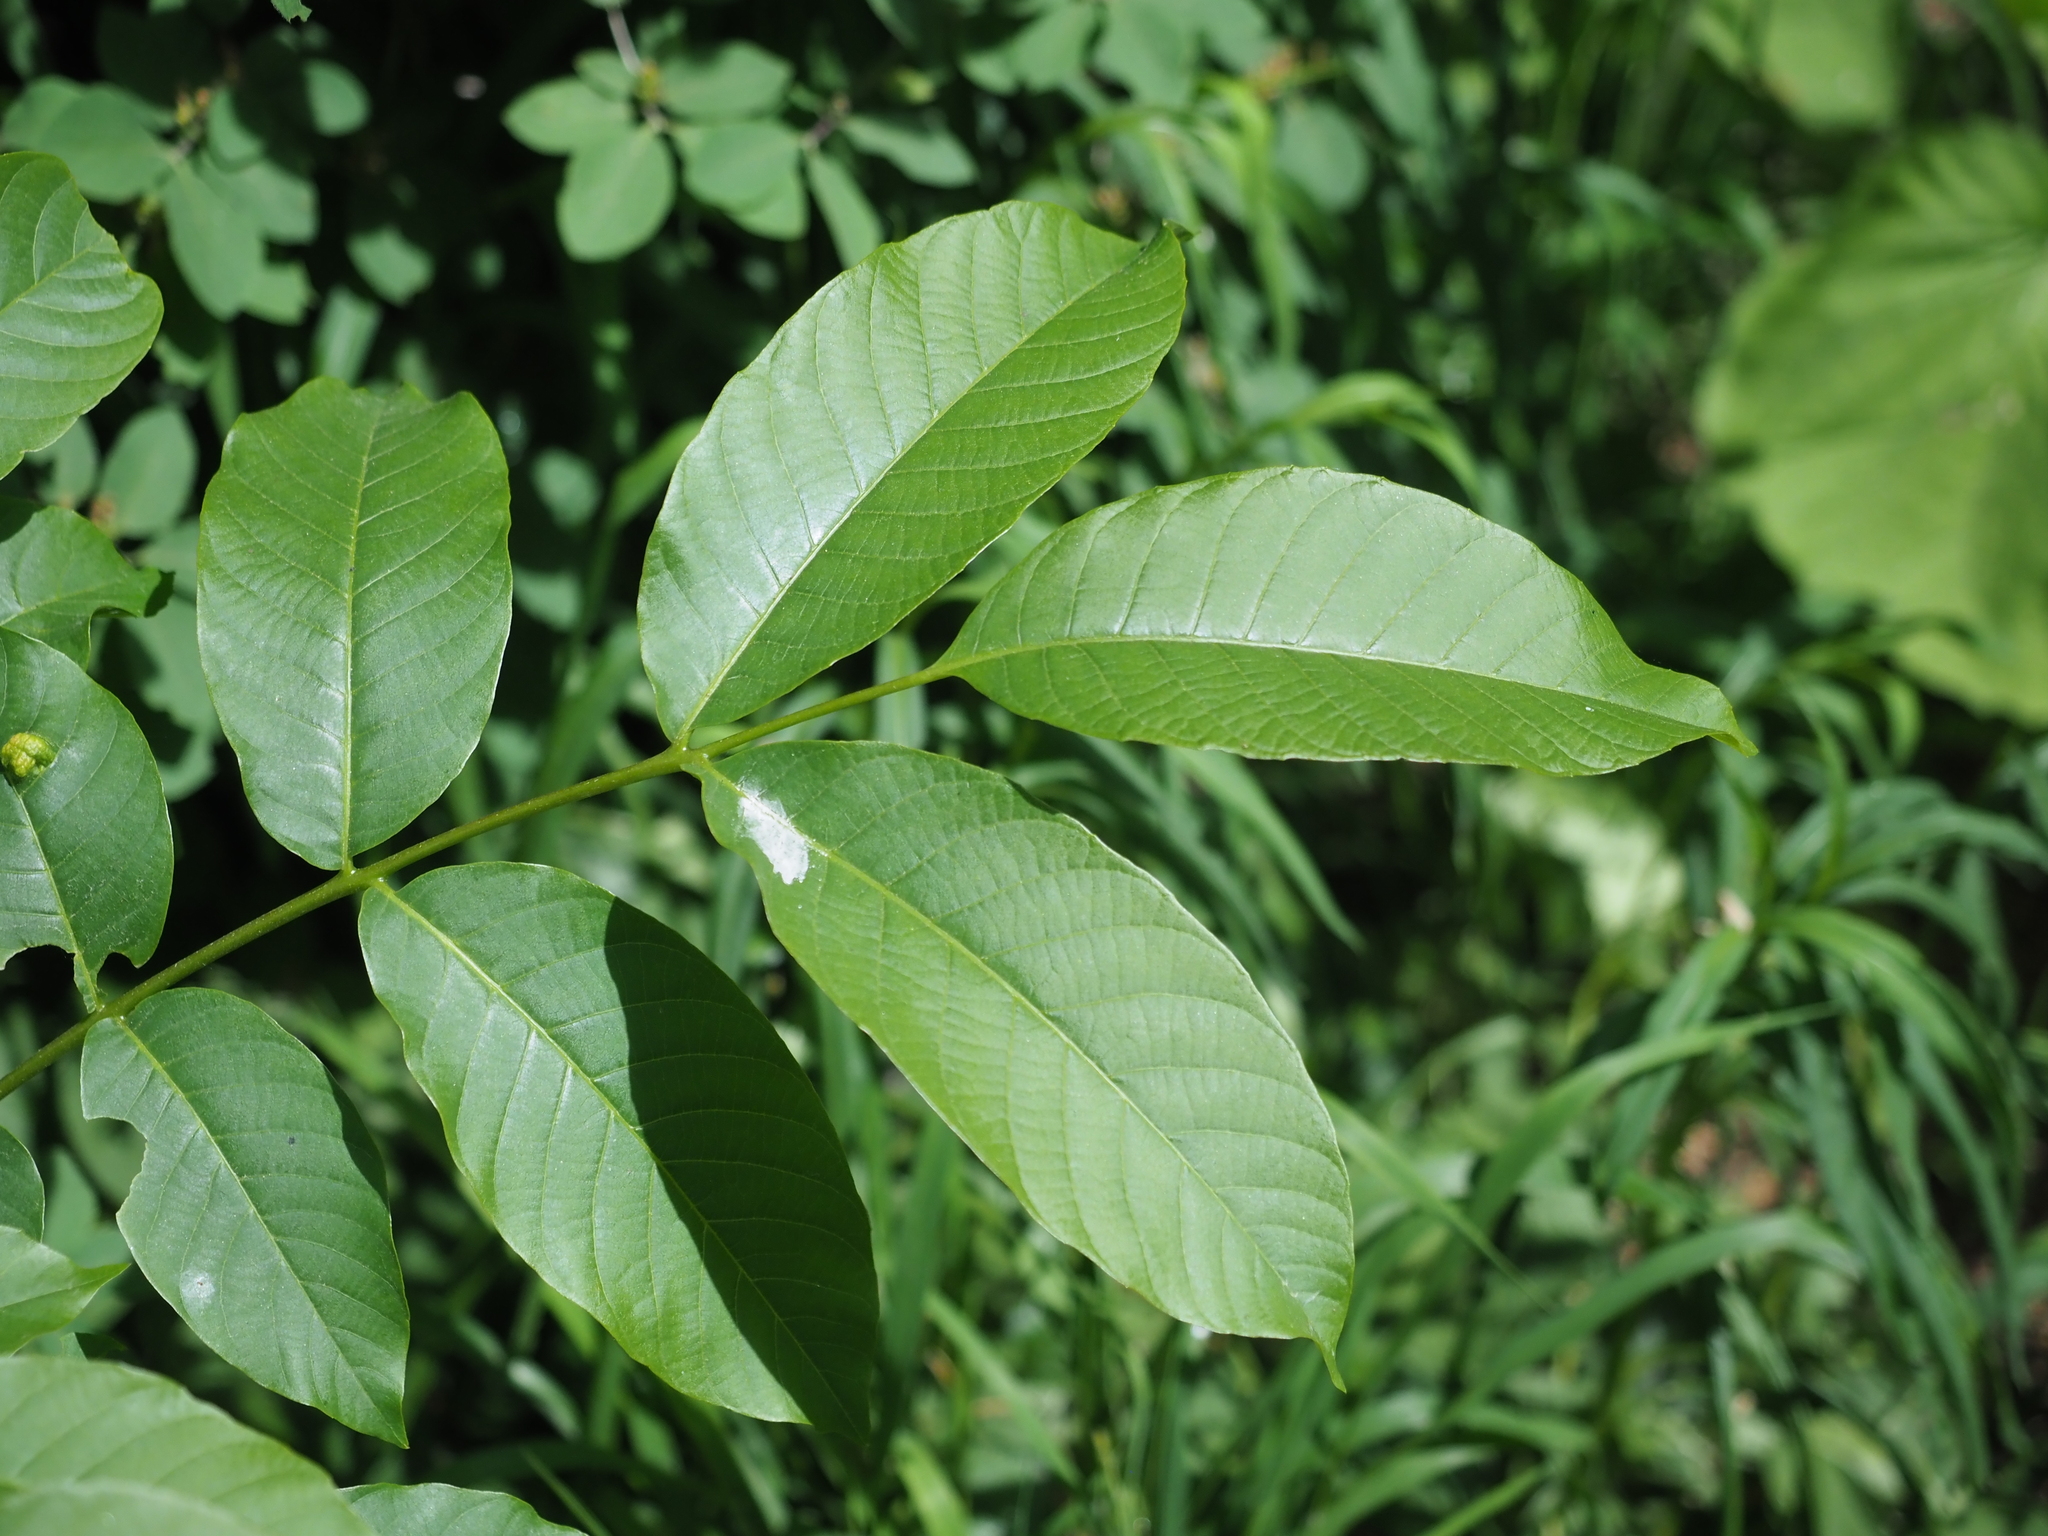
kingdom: Plantae
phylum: Tracheophyta
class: Magnoliopsida
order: Fagales
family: Juglandaceae
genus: Juglans
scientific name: Juglans regia
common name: Walnut
